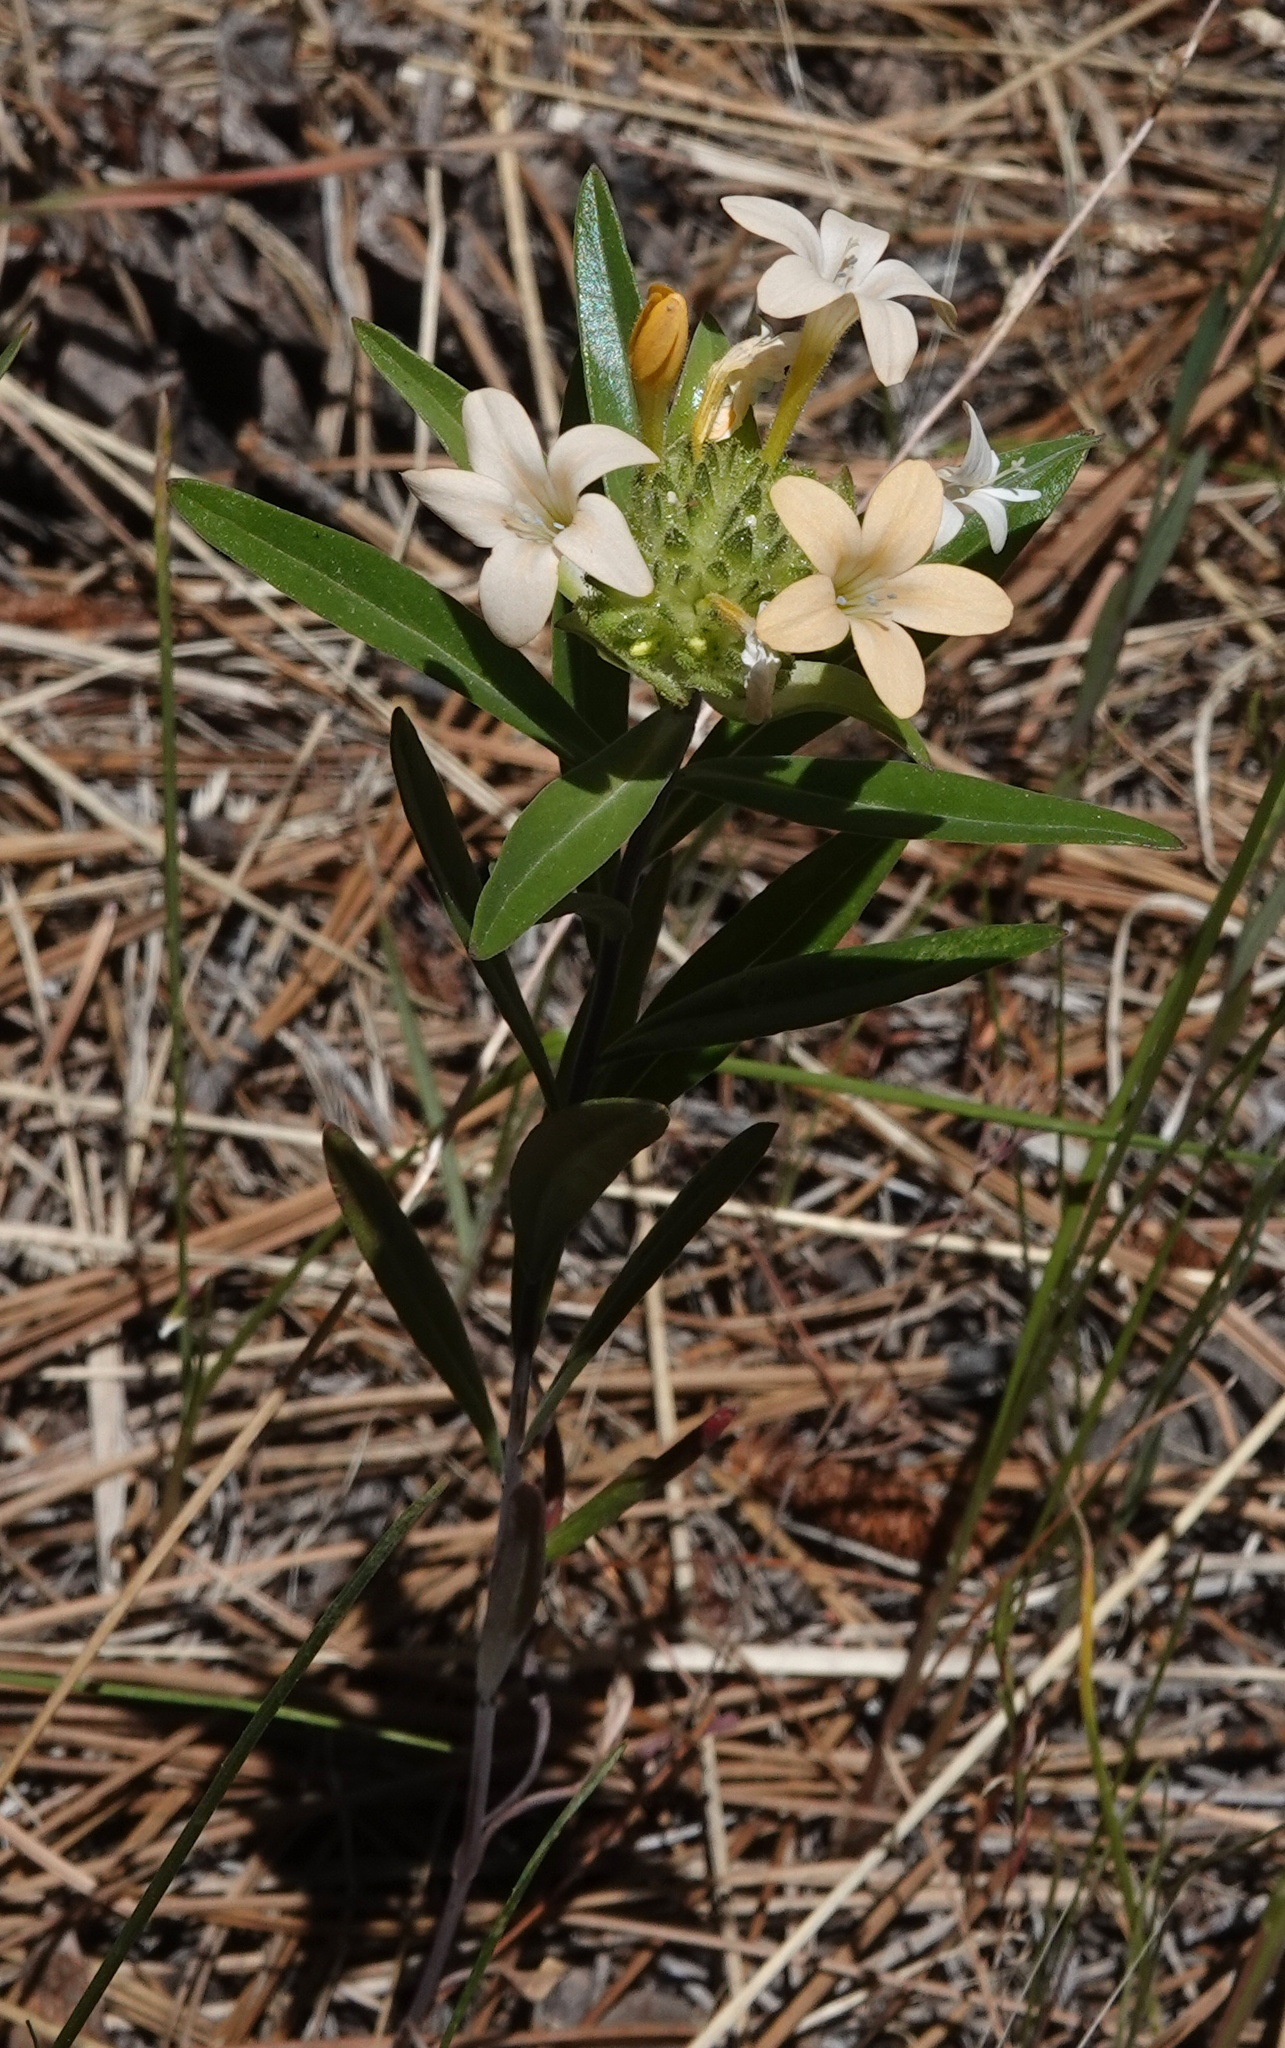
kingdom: Plantae
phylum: Tracheophyta
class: Magnoliopsida
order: Ericales
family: Polemoniaceae
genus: Collomia
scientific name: Collomia grandiflora
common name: California strawflower
